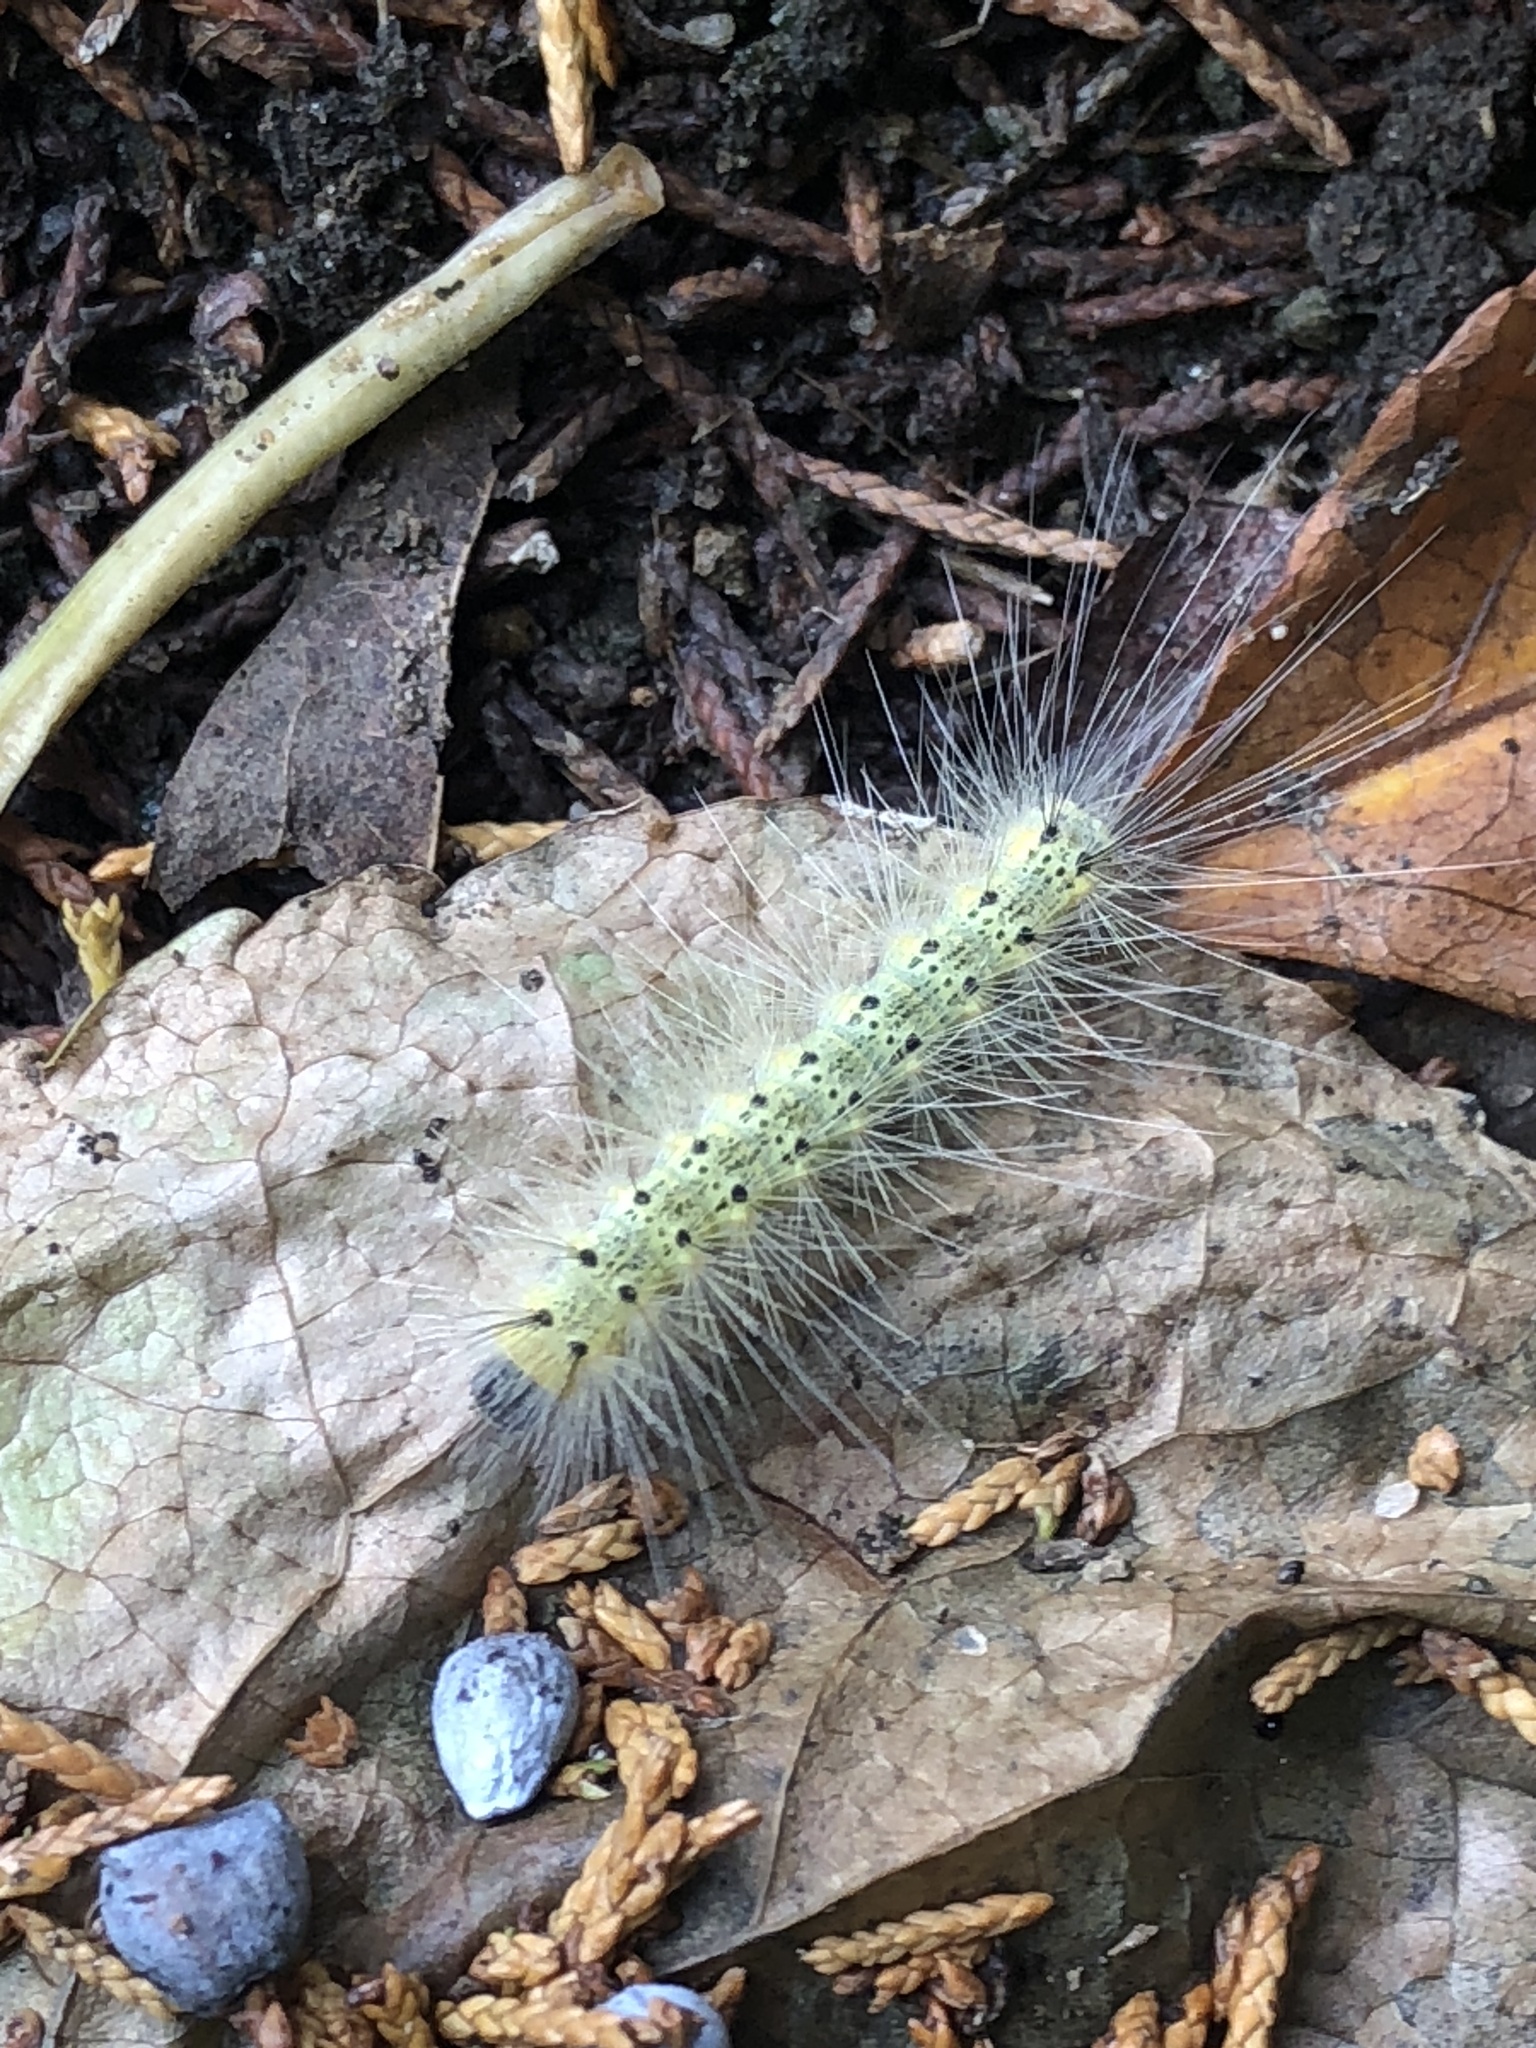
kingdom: Animalia
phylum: Arthropoda
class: Insecta
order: Lepidoptera
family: Erebidae
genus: Hyphantria
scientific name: Hyphantria cunea
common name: American white moth
